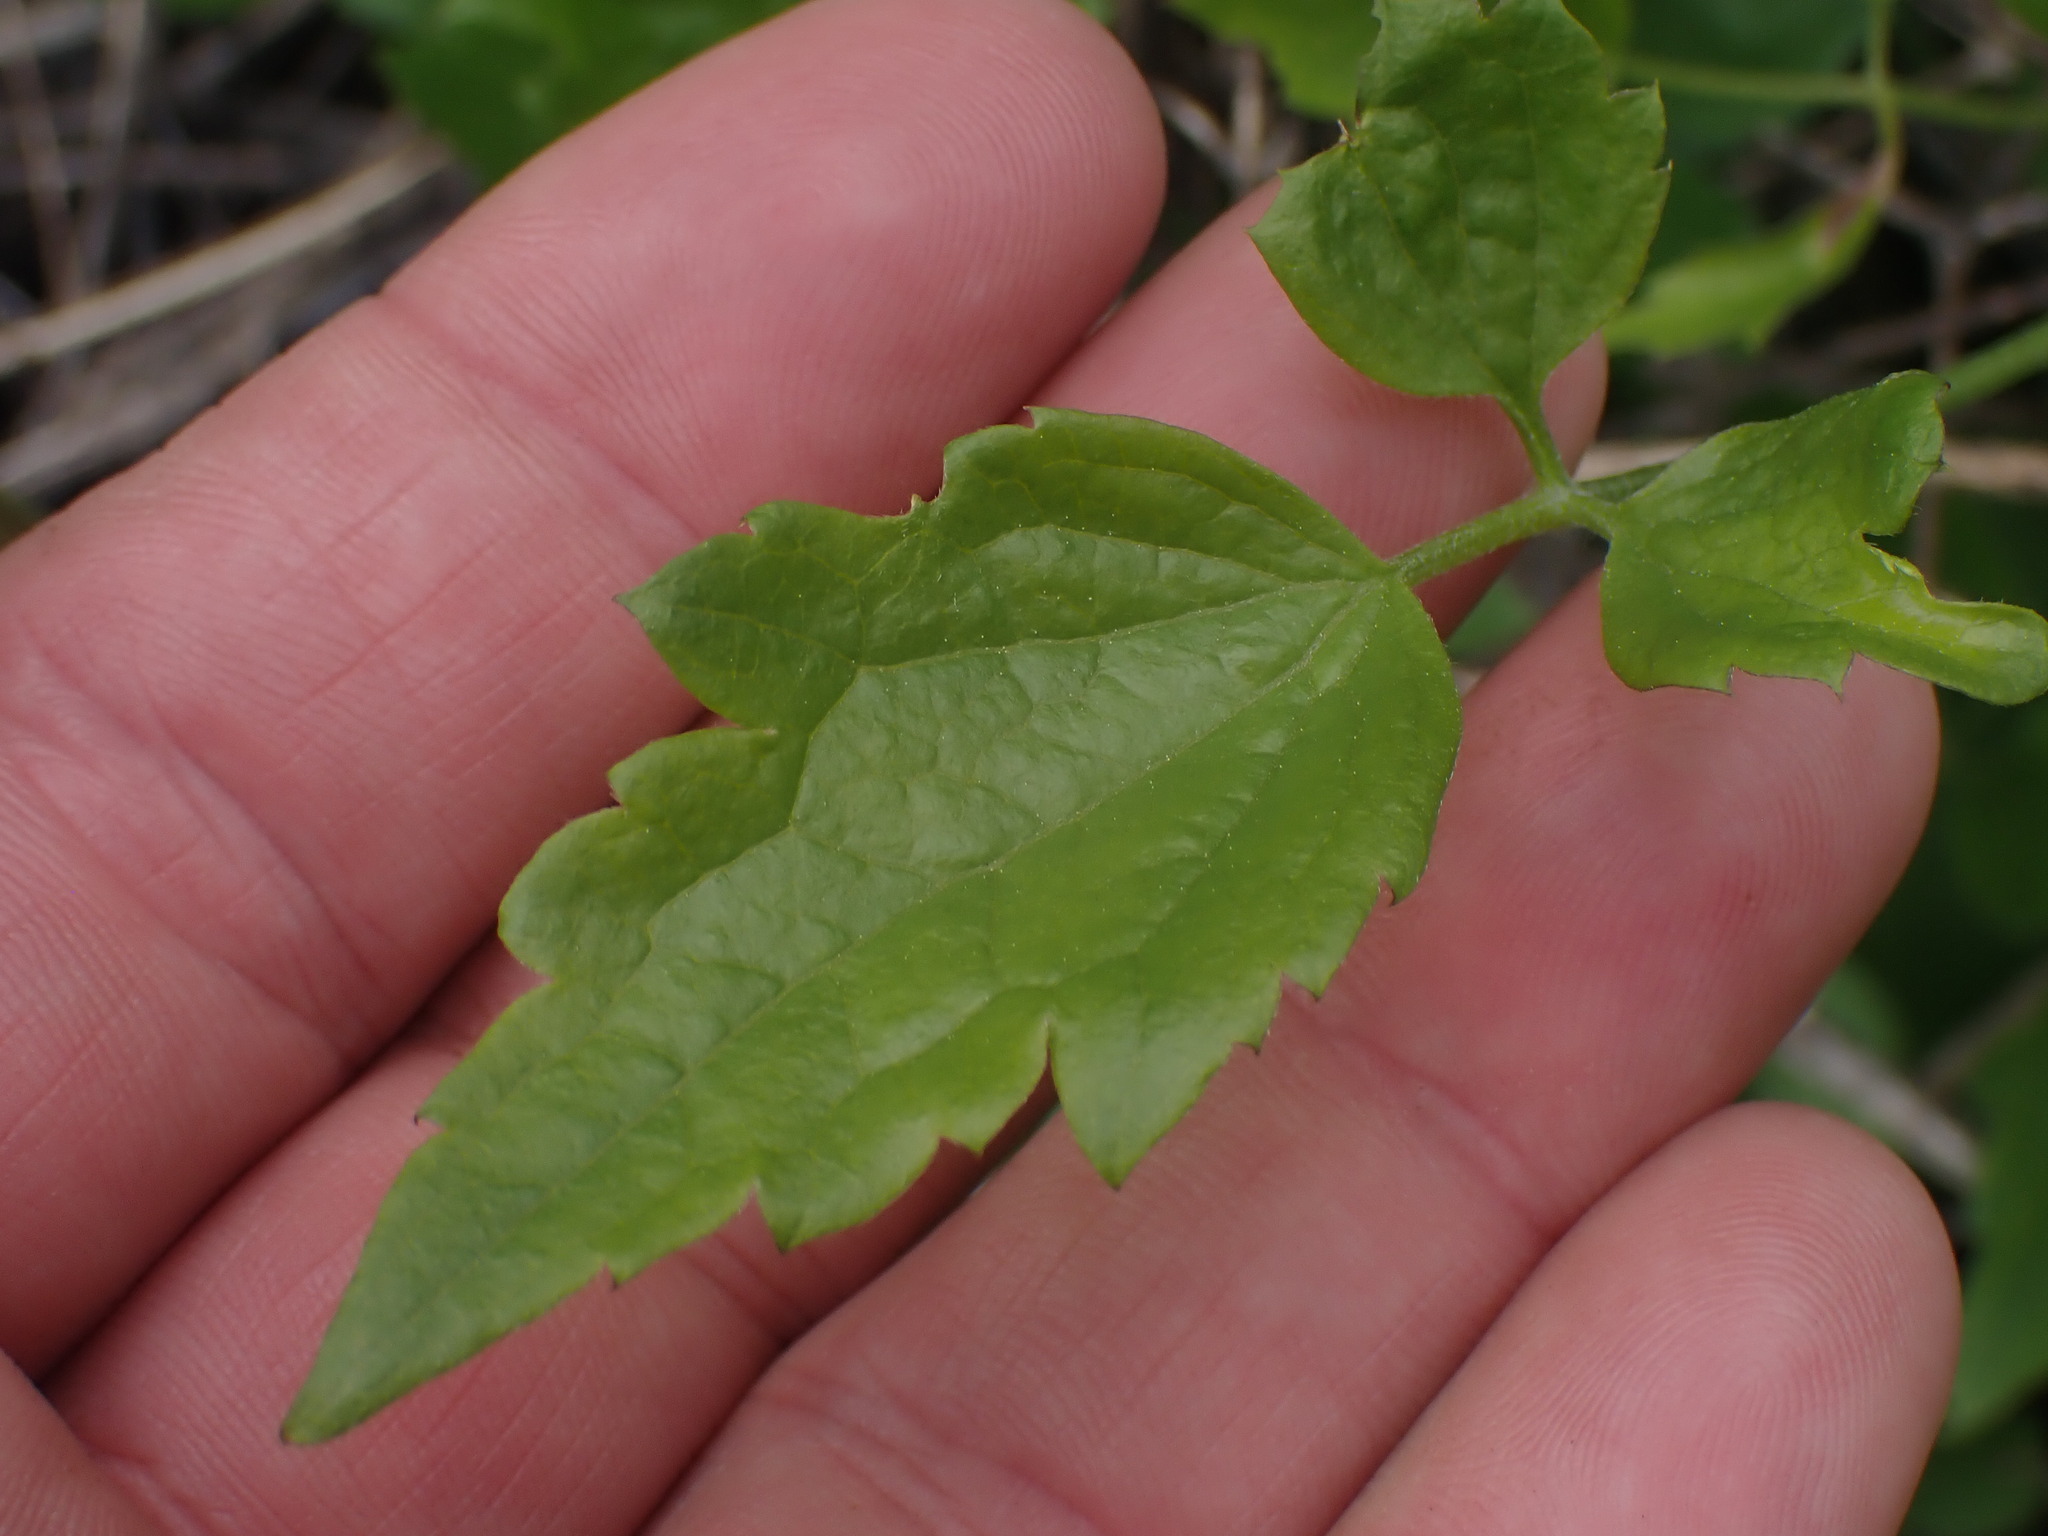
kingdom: Plantae
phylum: Tracheophyta
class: Magnoliopsida
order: Ranunculales
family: Ranunculaceae
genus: Clematis
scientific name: Clematis ligusticifolia
